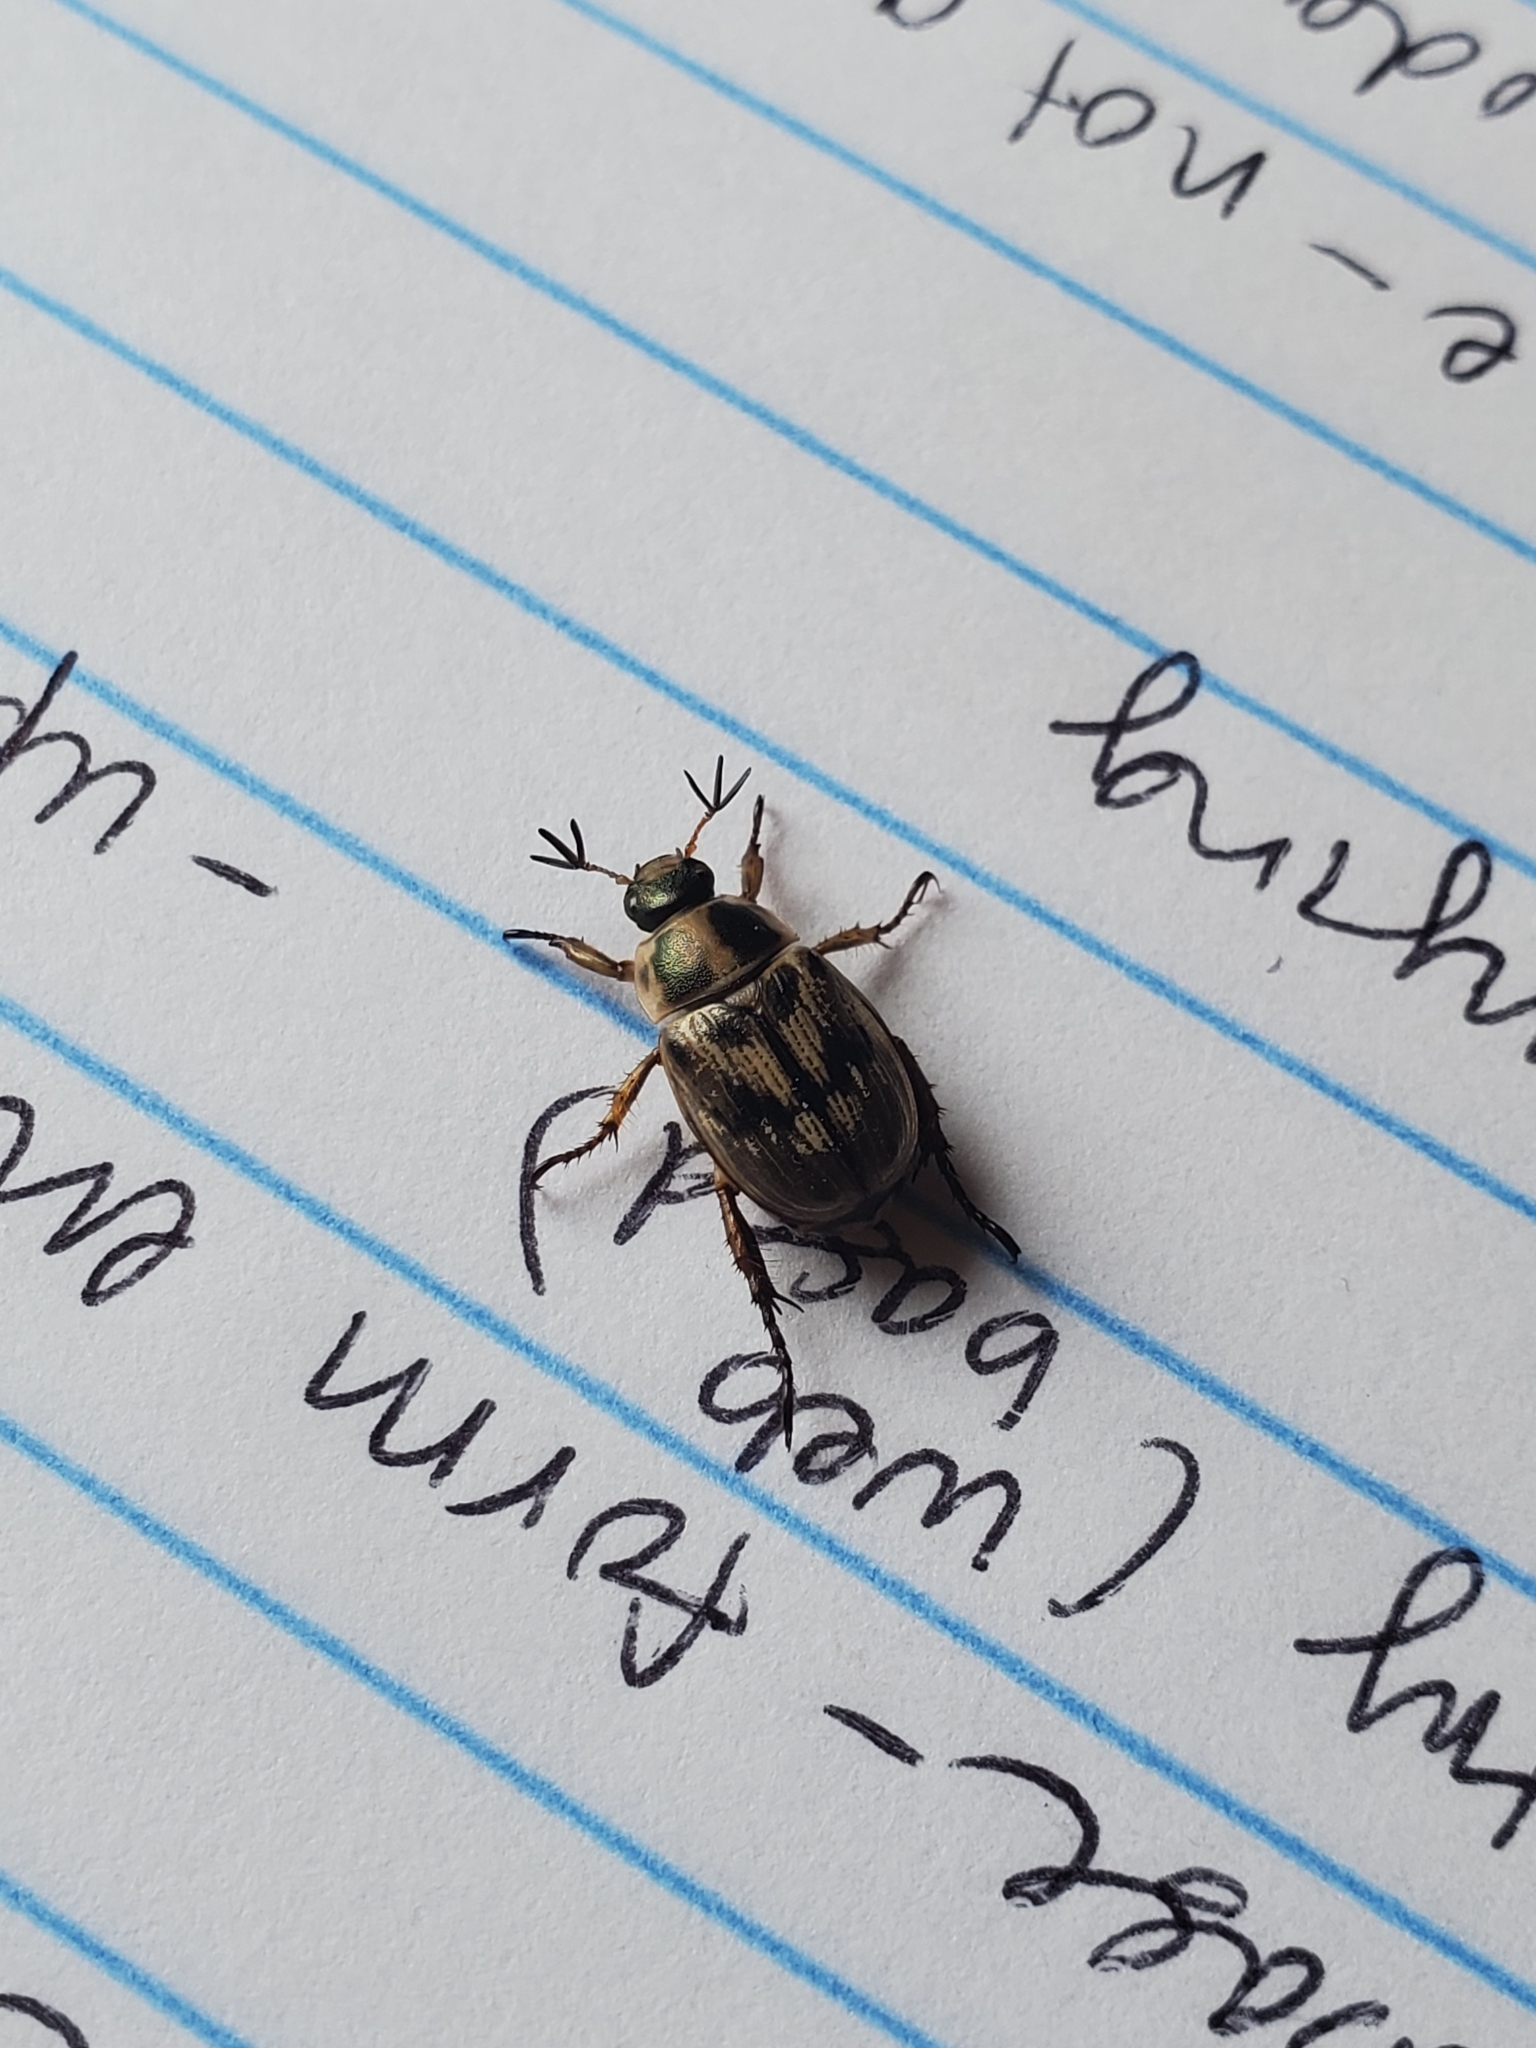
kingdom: Animalia
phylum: Arthropoda
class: Insecta
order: Coleoptera
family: Scarabaeidae
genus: Exomala
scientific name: Exomala orientalis
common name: Oriental beetle
